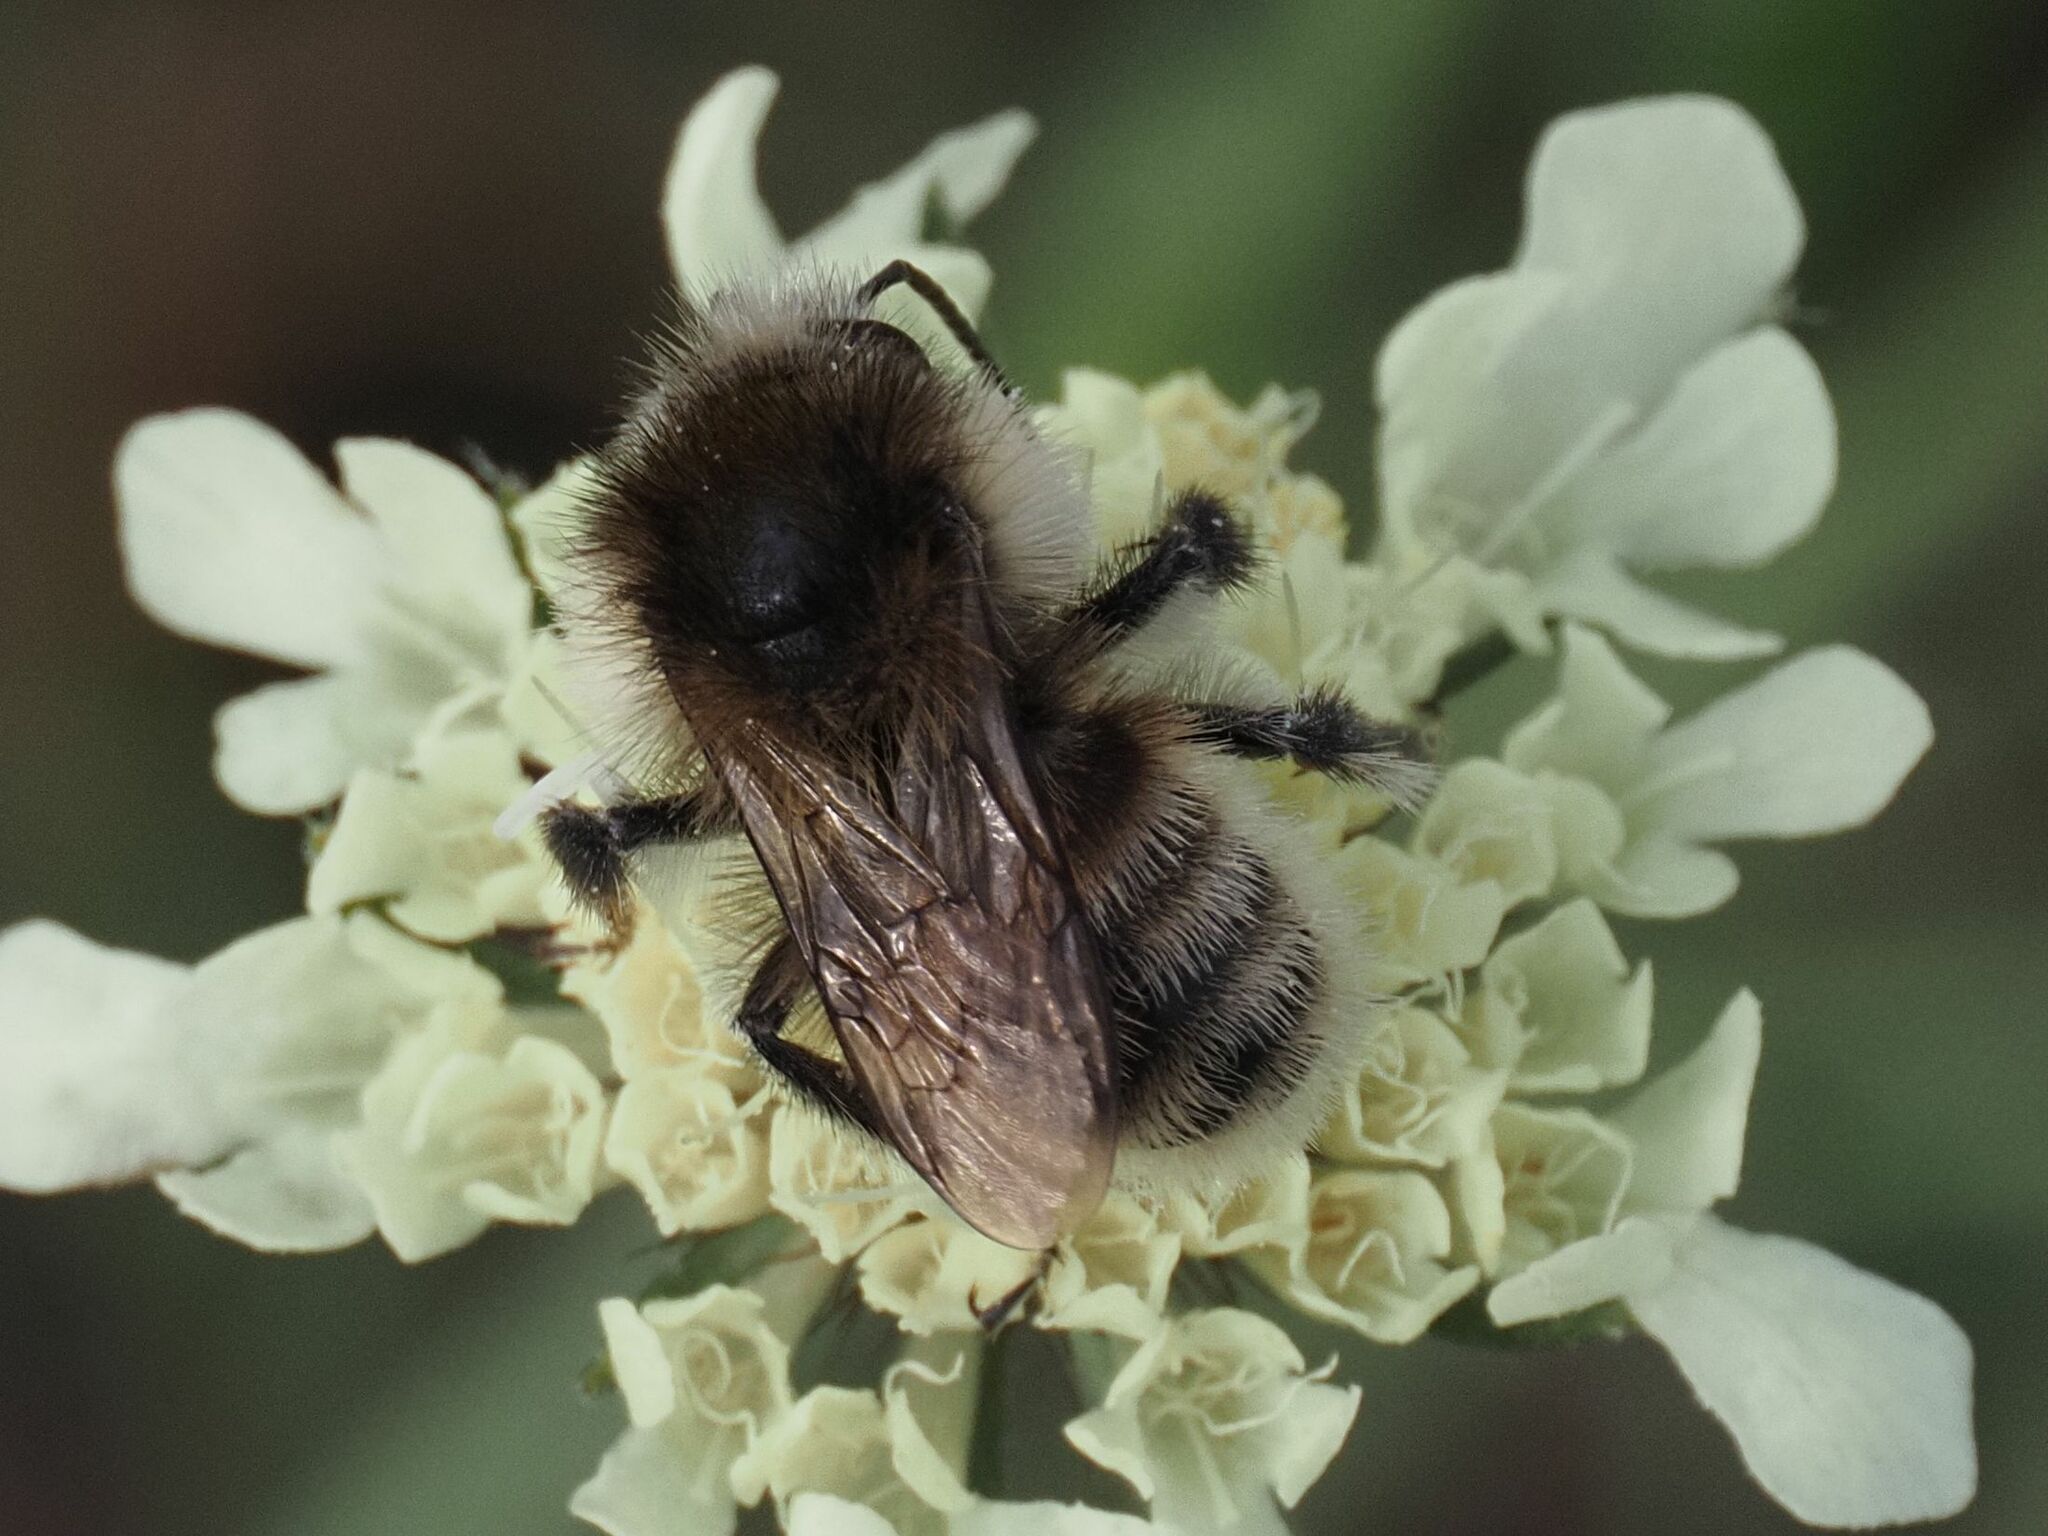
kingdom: Animalia
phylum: Arthropoda
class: Insecta
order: Hymenoptera
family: Apidae
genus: Bombus
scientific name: Bombus humilis
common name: Brown-banded carder-bee
